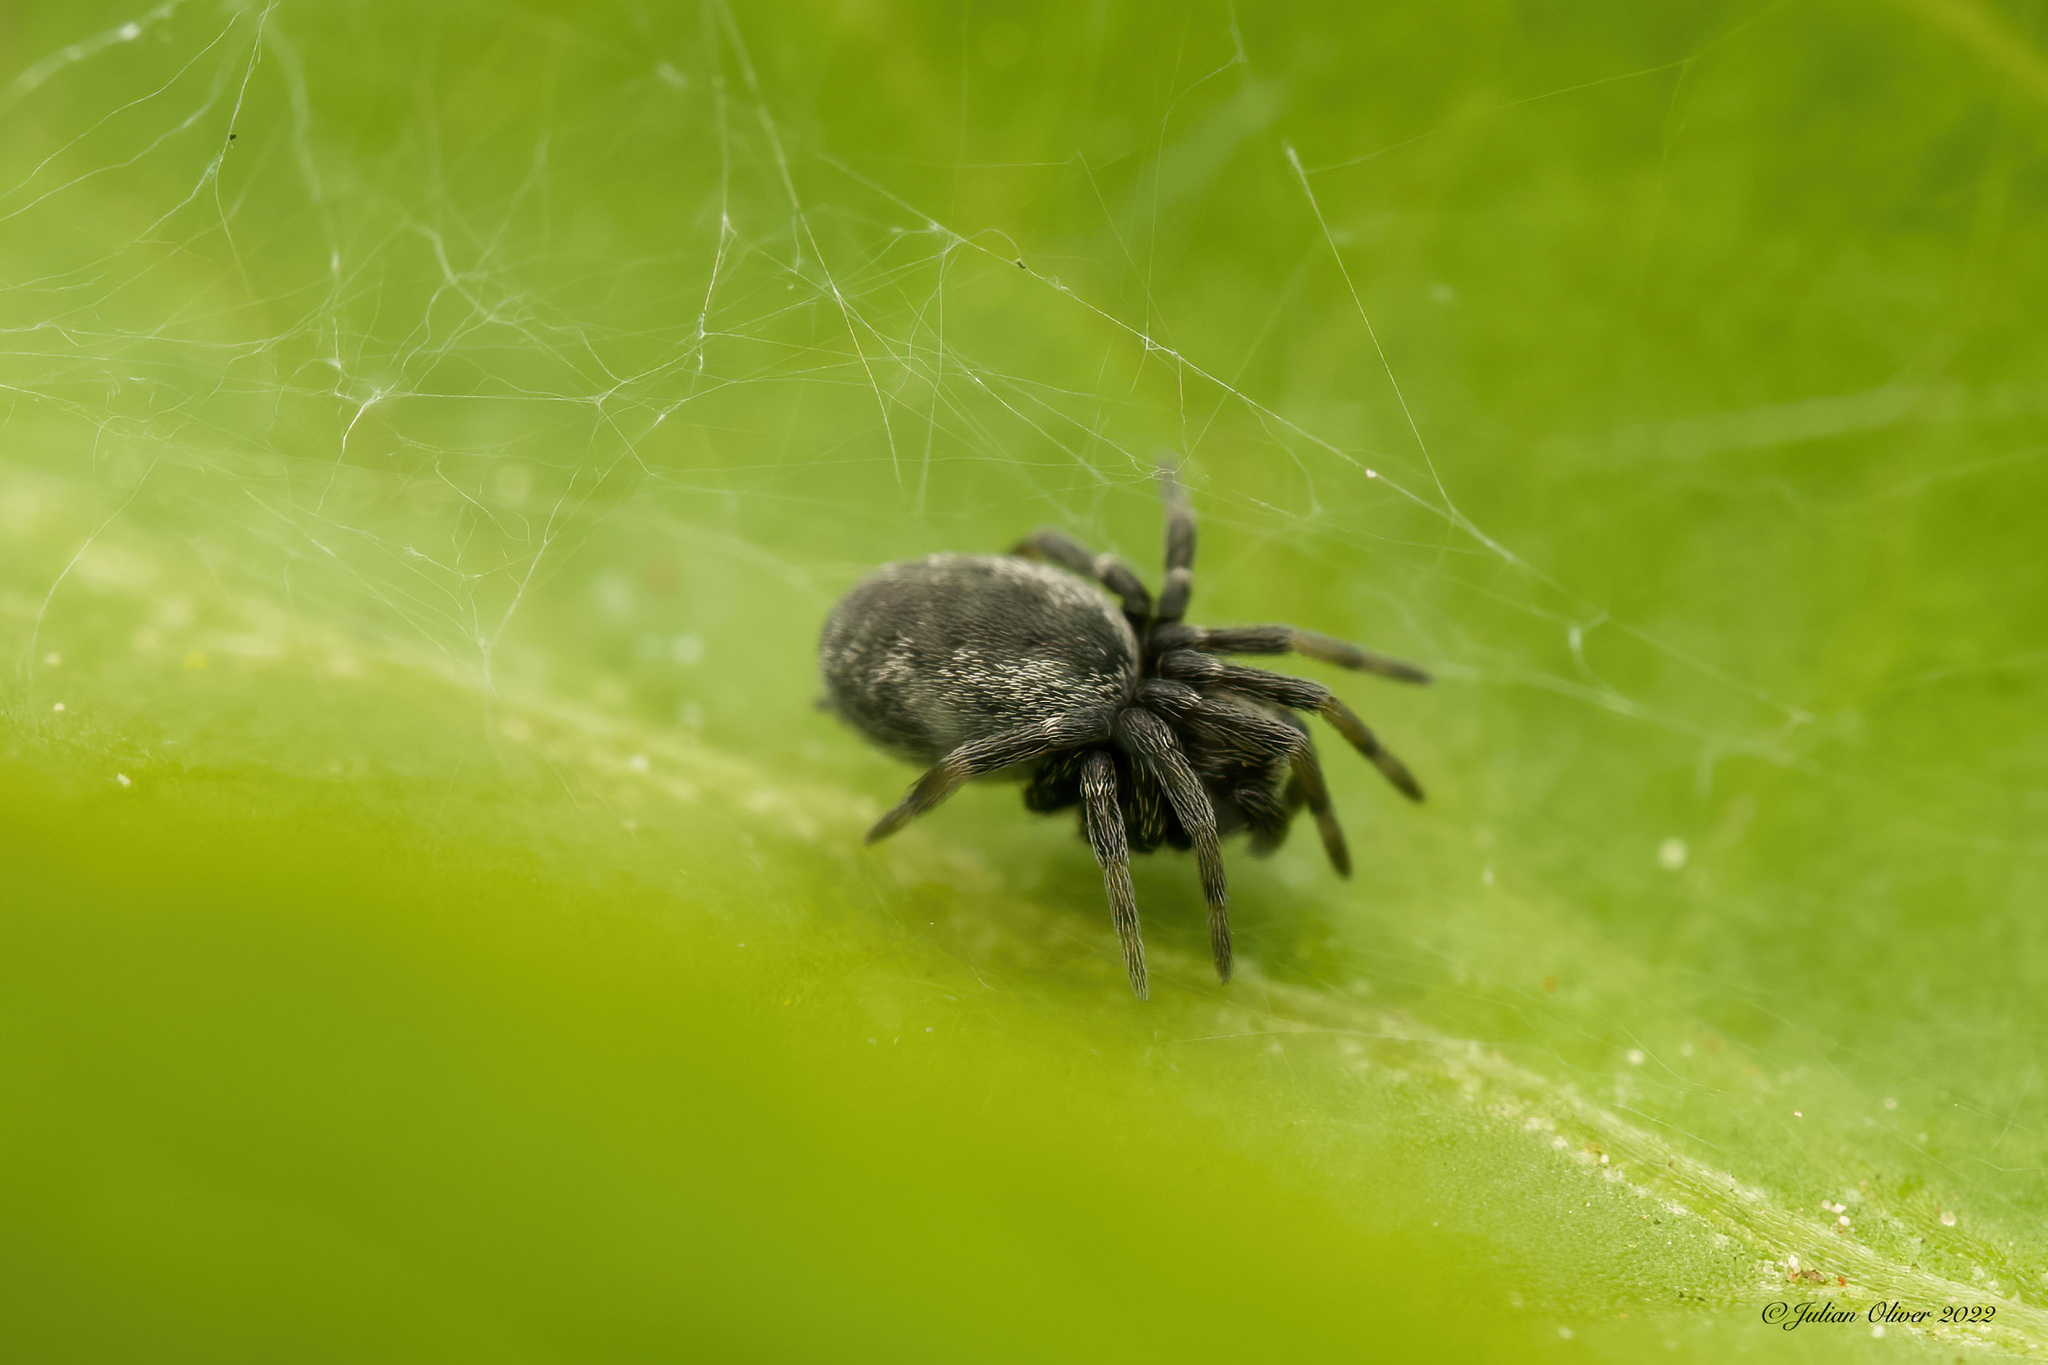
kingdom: Animalia
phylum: Arthropoda
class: Arachnida
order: Araneae
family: Dictynidae
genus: Brigittea
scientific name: Brigittea latens
